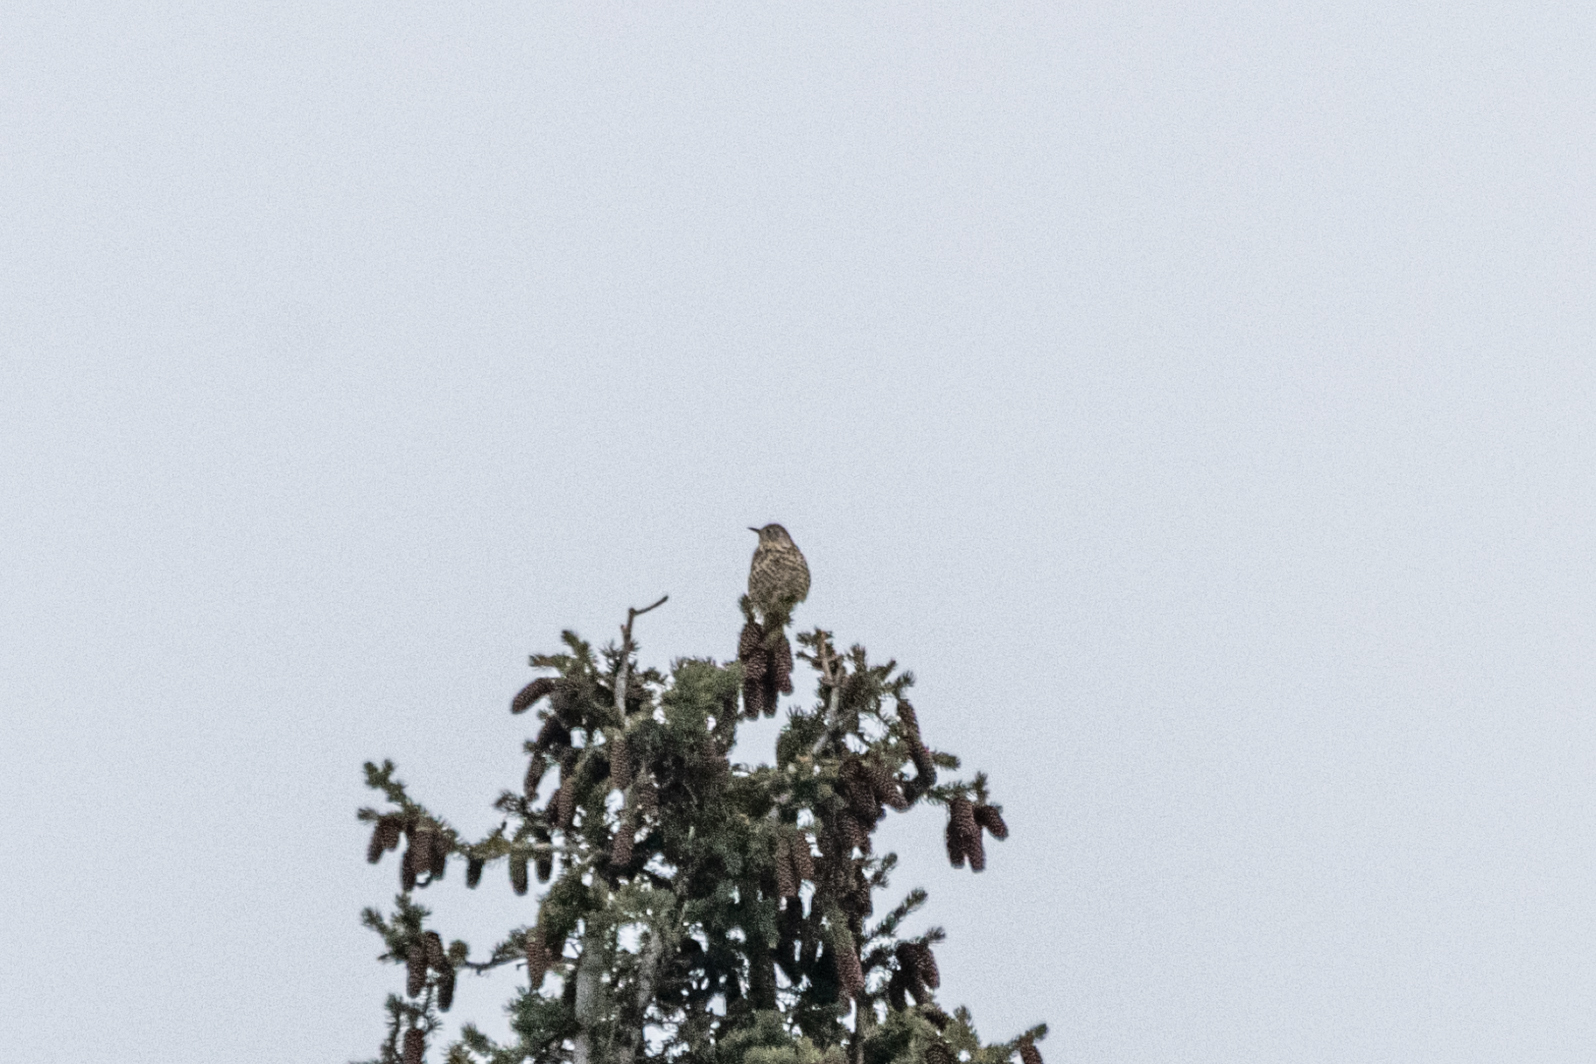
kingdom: Animalia
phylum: Chordata
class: Aves
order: Passeriformes
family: Turdidae
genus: Turdus
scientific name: Turdus viscivorus
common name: Mistle thrush
